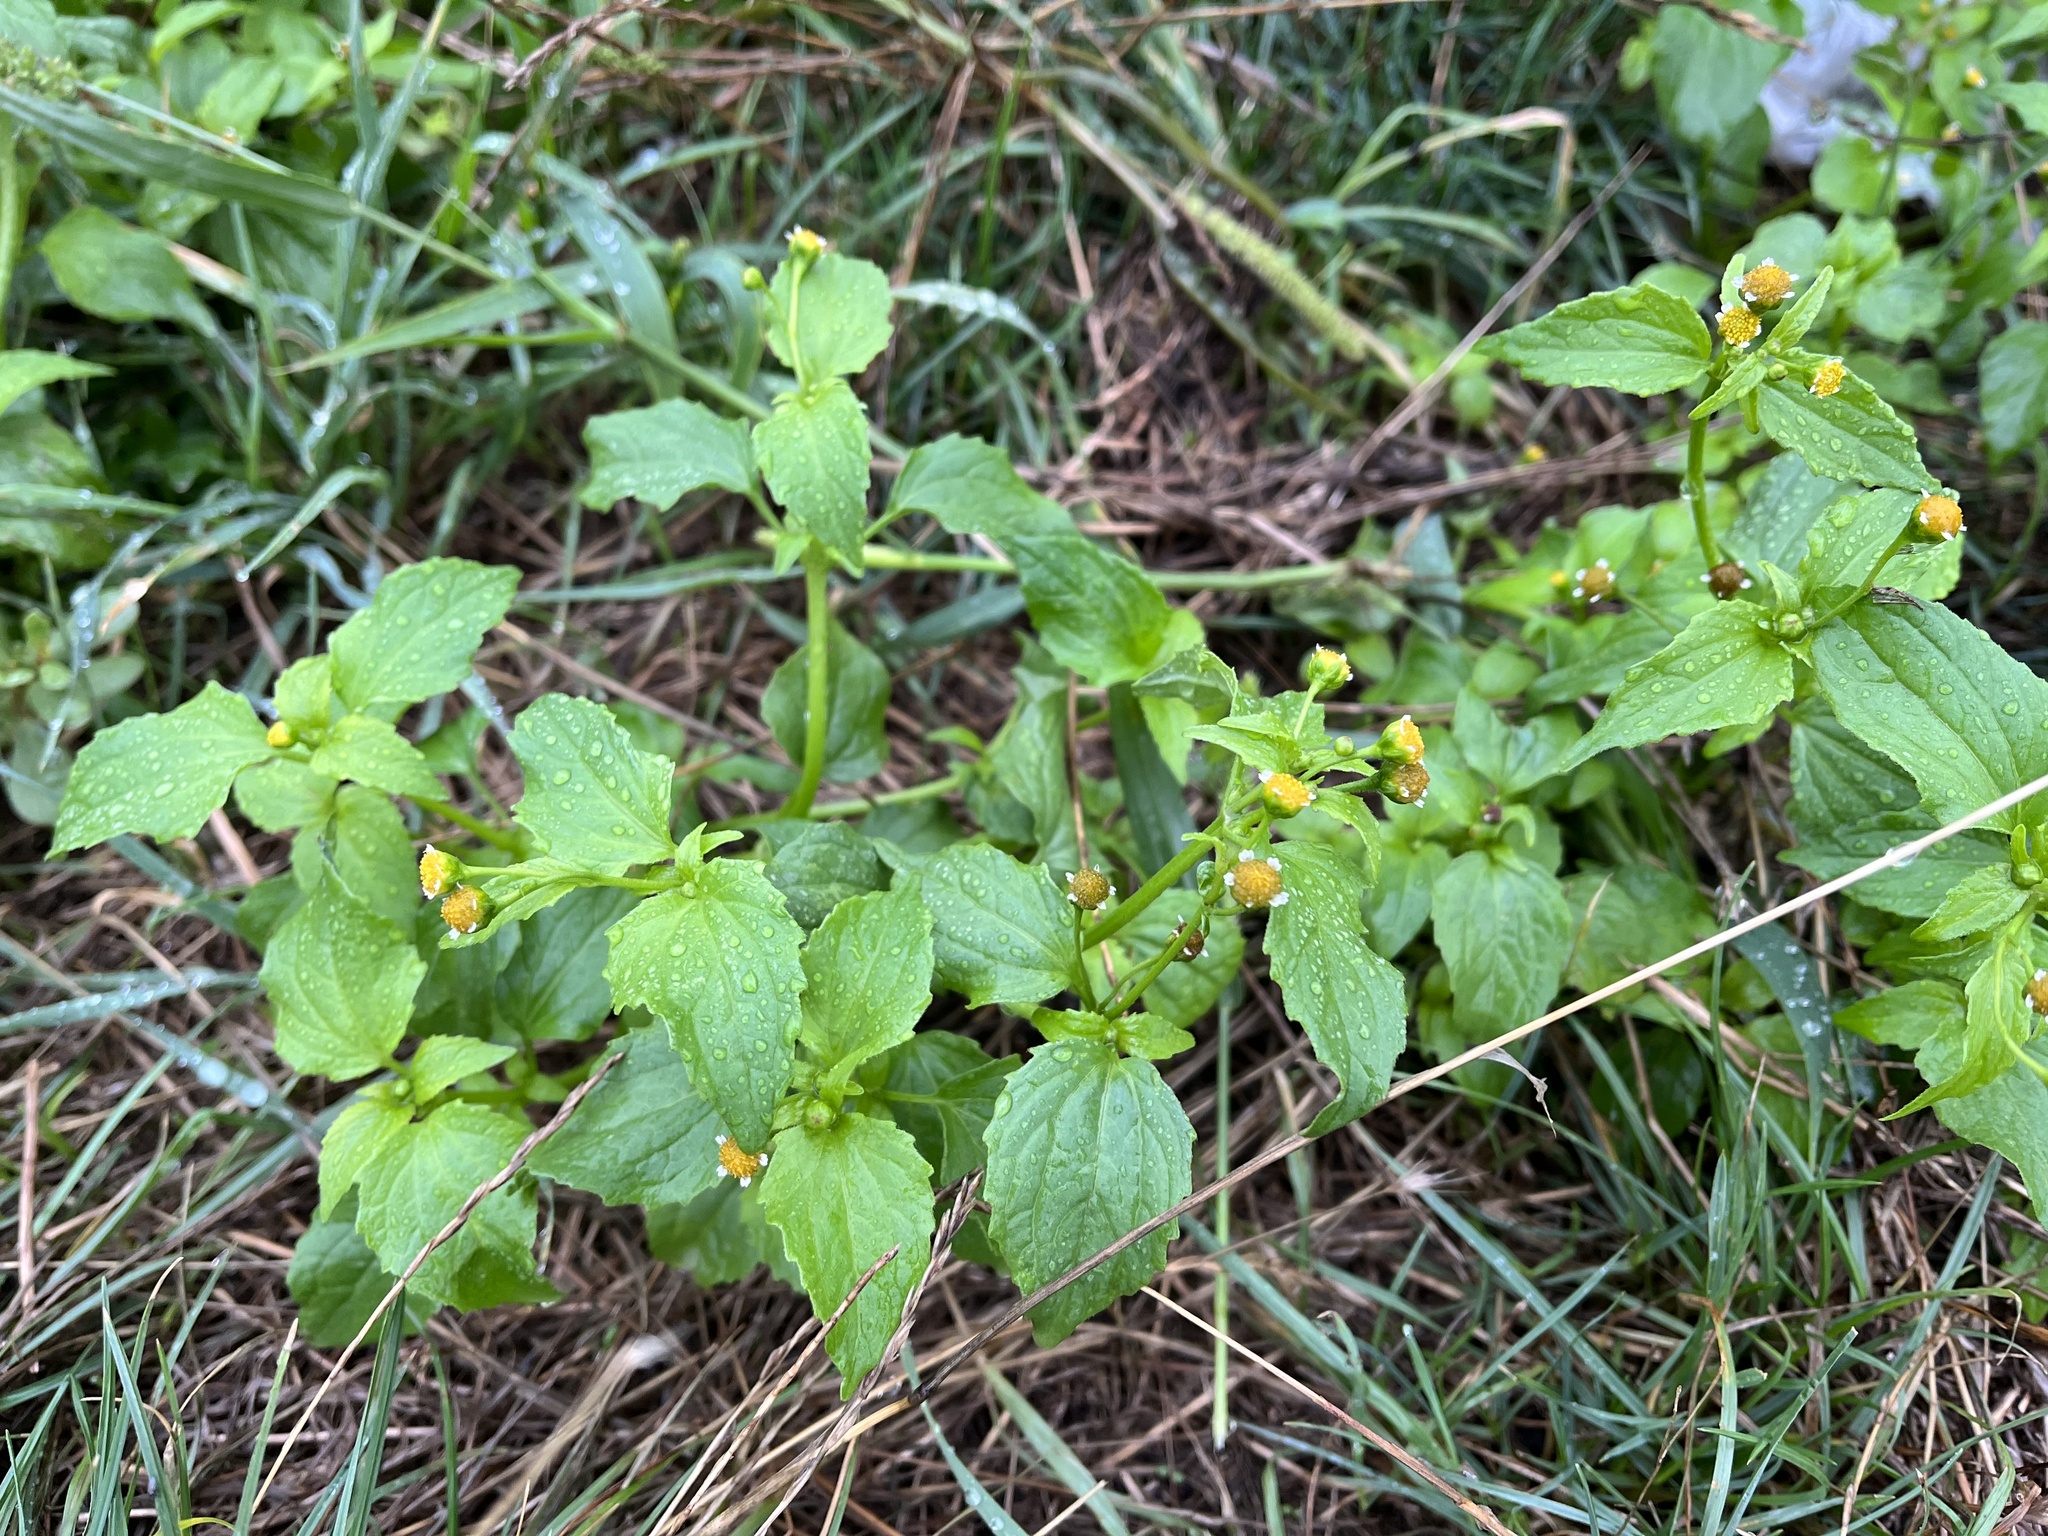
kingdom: Plantae
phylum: Tracheophyta
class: Magnoliopsida
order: Asterales
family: Asteraceae
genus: Galinsoga
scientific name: Galinsoga parviflora
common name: Gallant soldier
